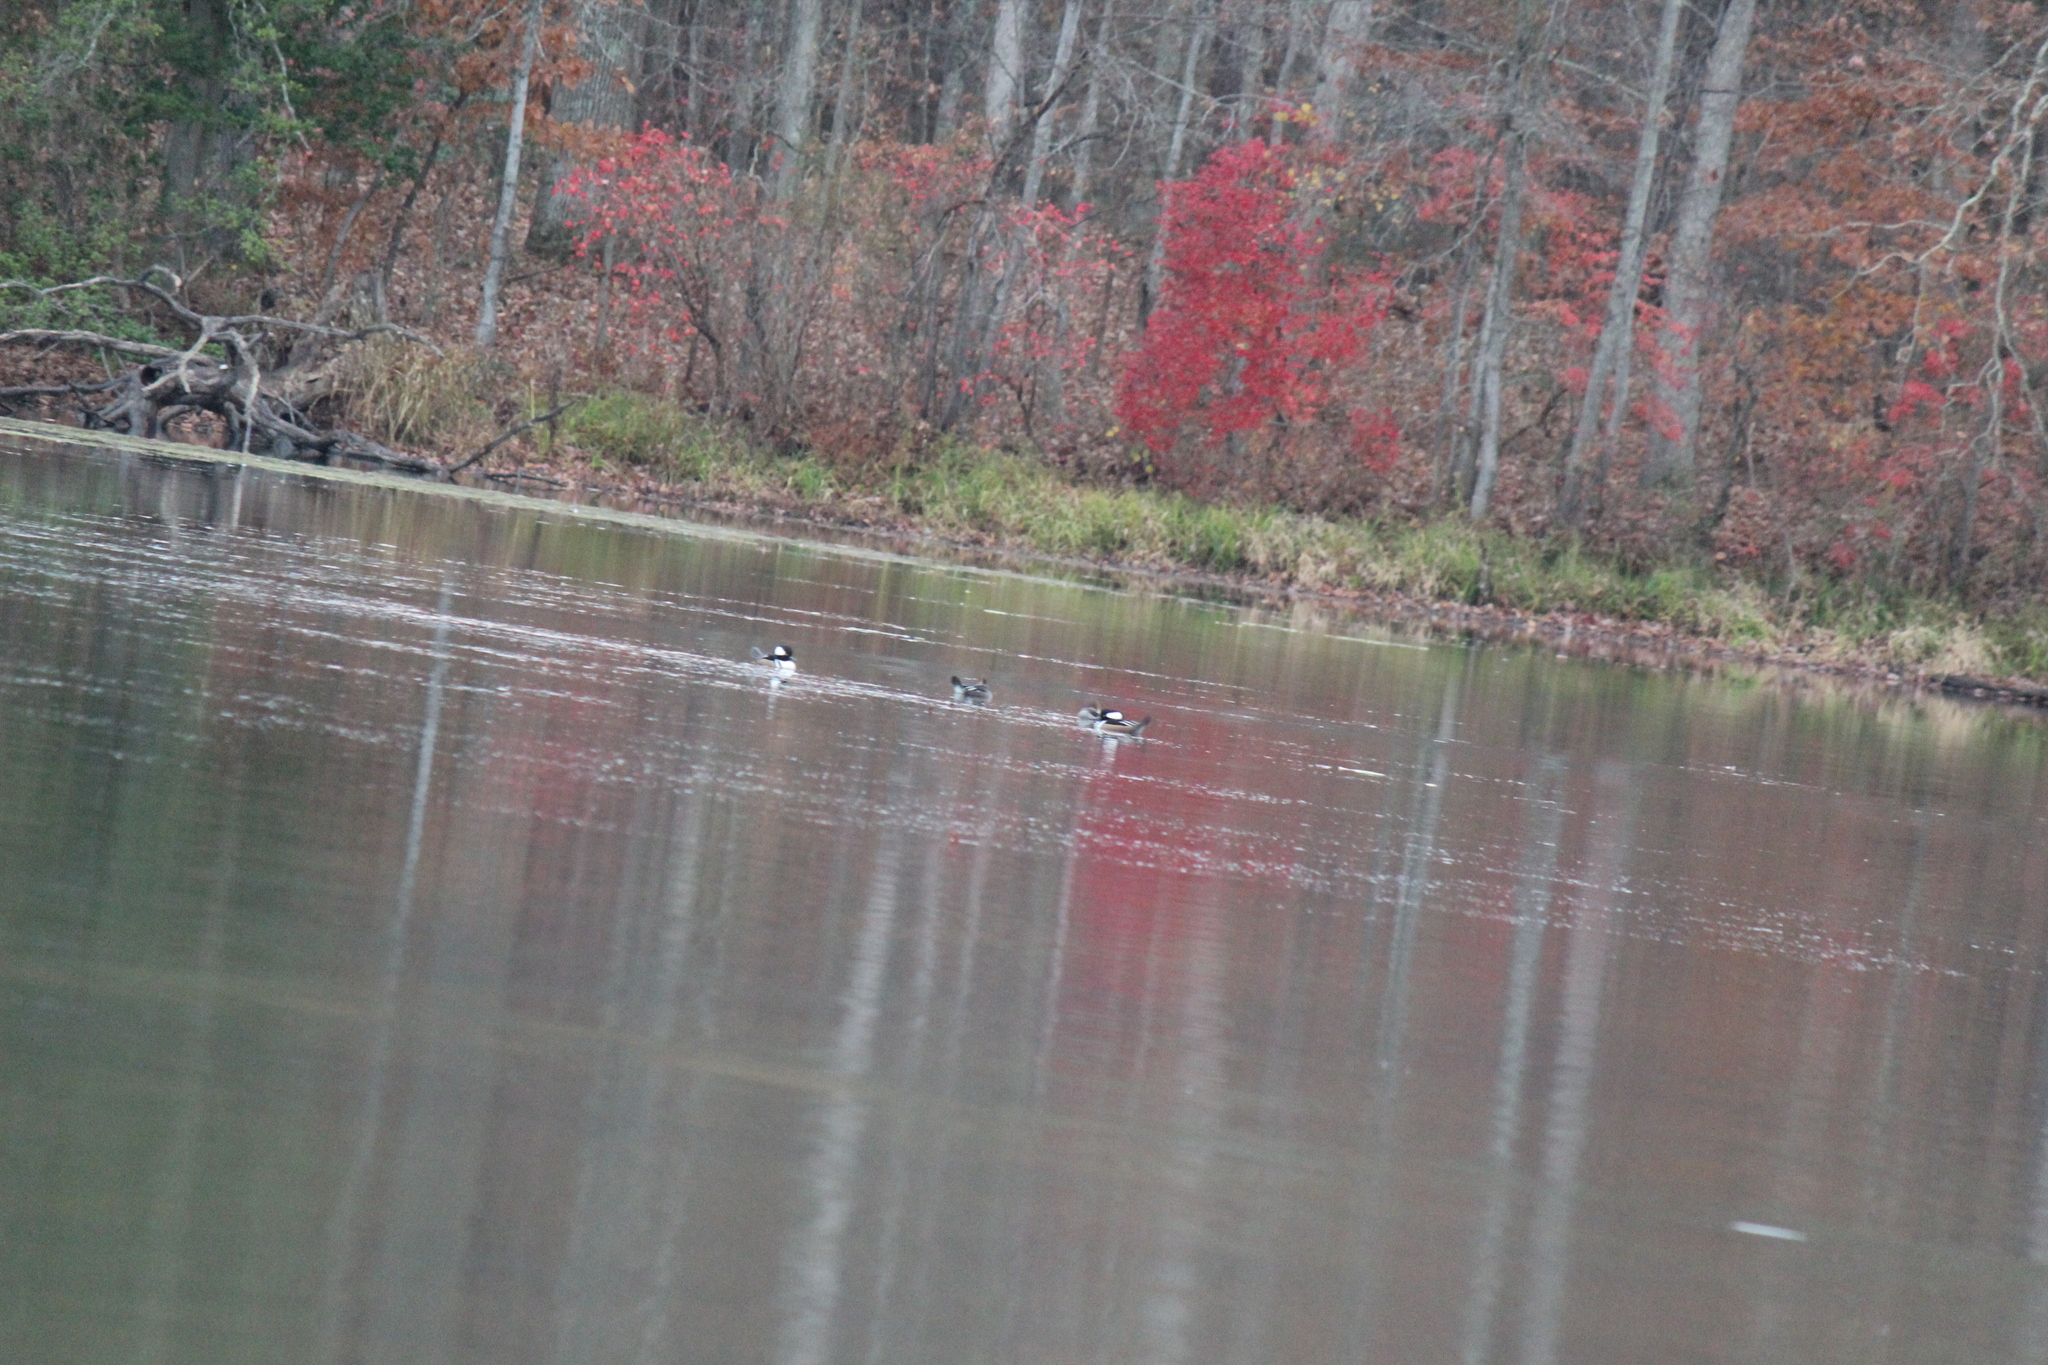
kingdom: Animalia
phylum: Chordata
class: Aves
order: Anseriformes
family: Anatidae
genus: Lophodytes
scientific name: Lophodytes cucullatus
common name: Hooded merganser
